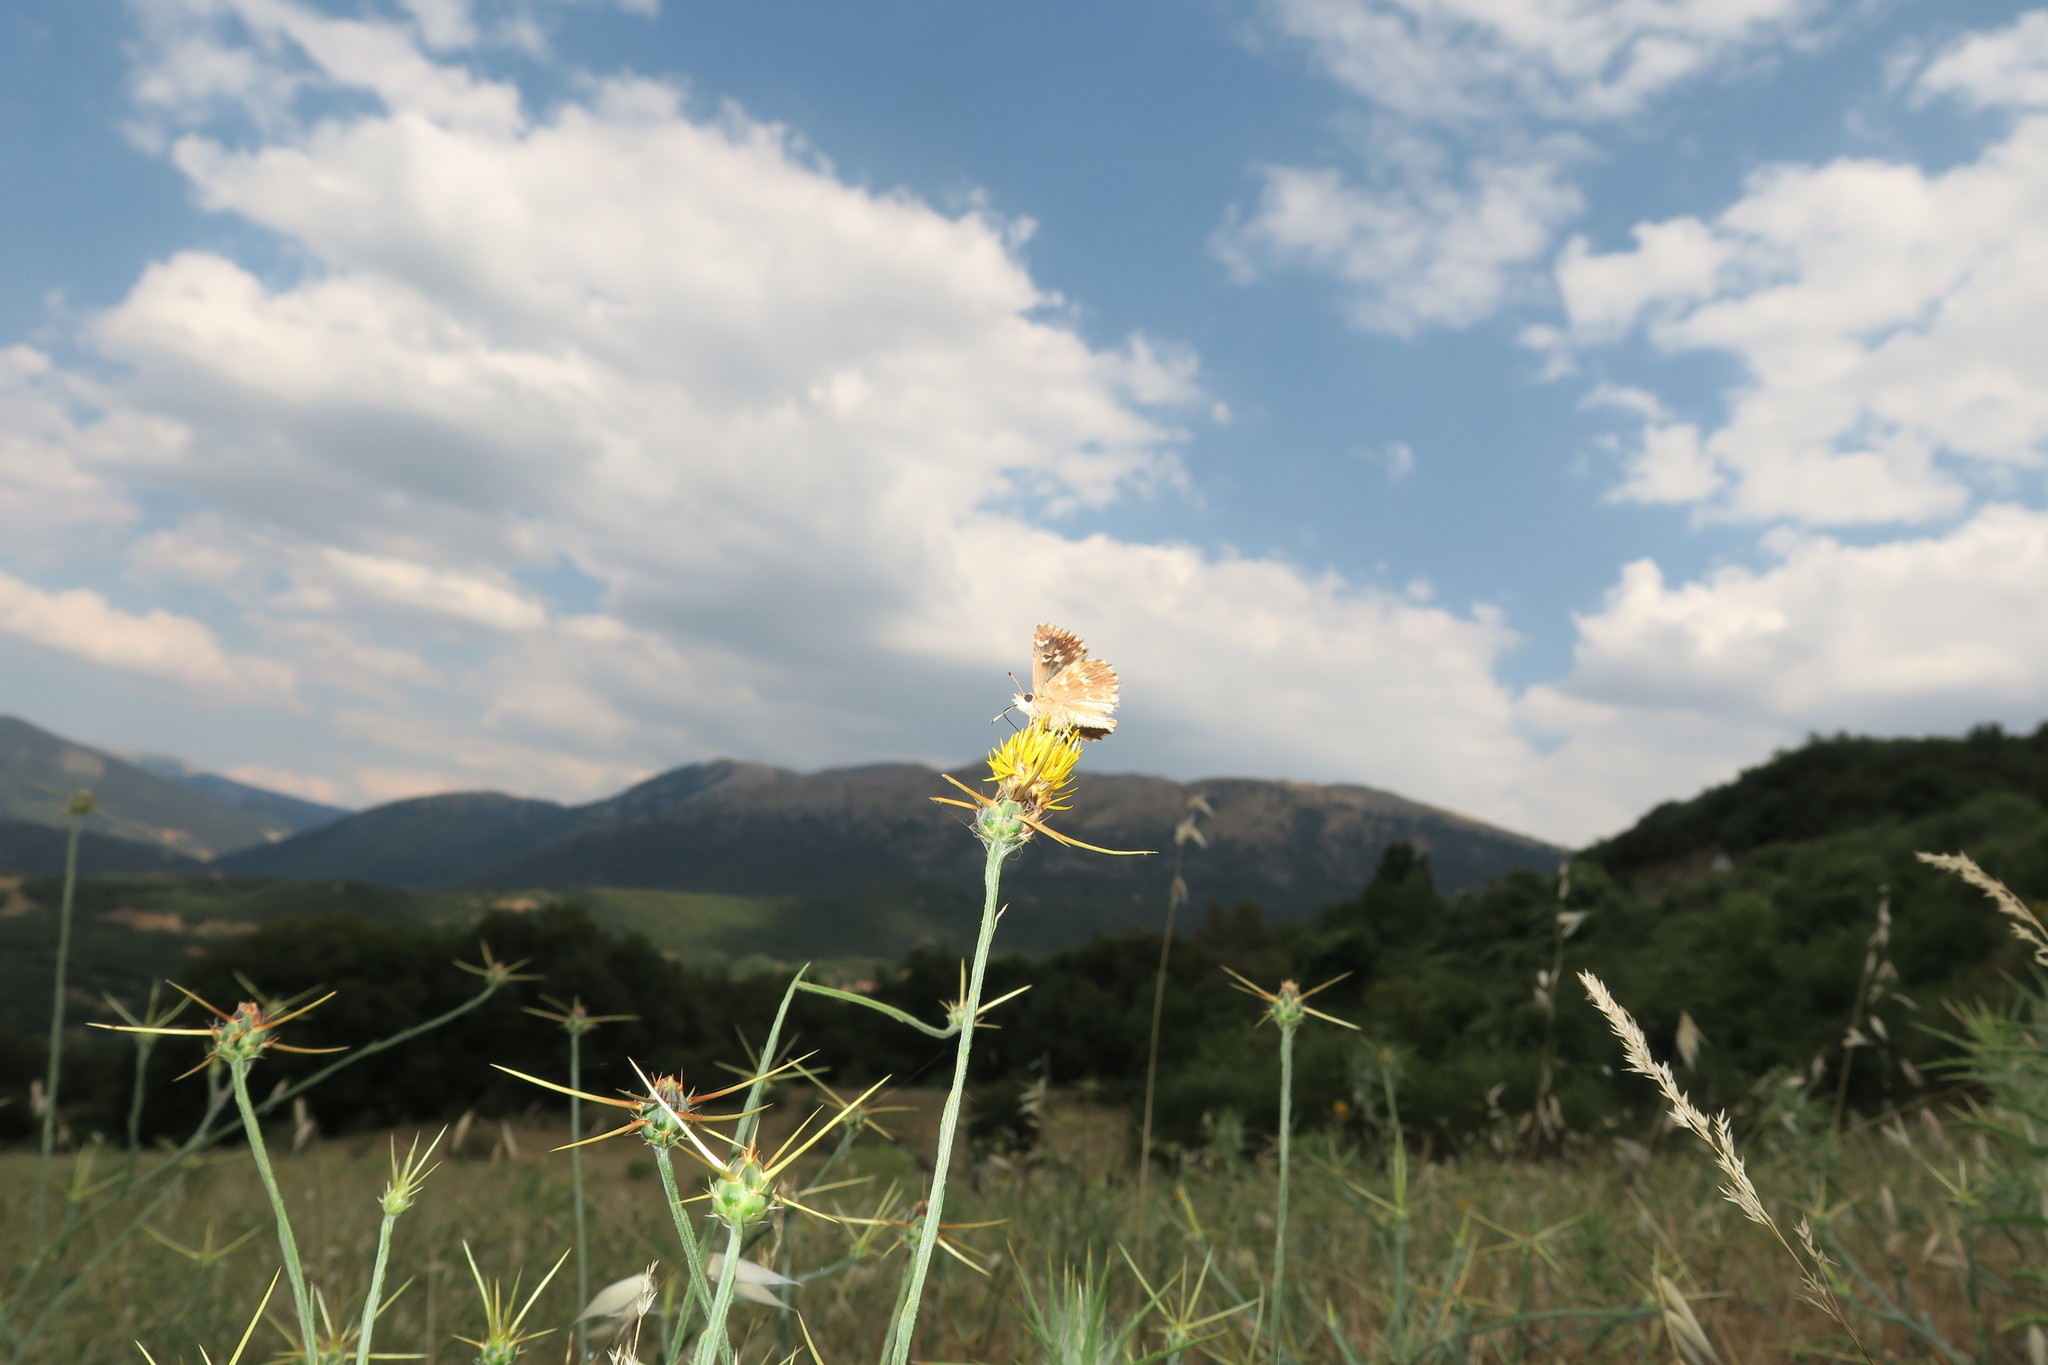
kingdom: Animalia
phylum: Arthropoda
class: Insecta
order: Lepidoptera
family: Hesperiidae
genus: Syrichtus
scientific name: Syrichtus proto
